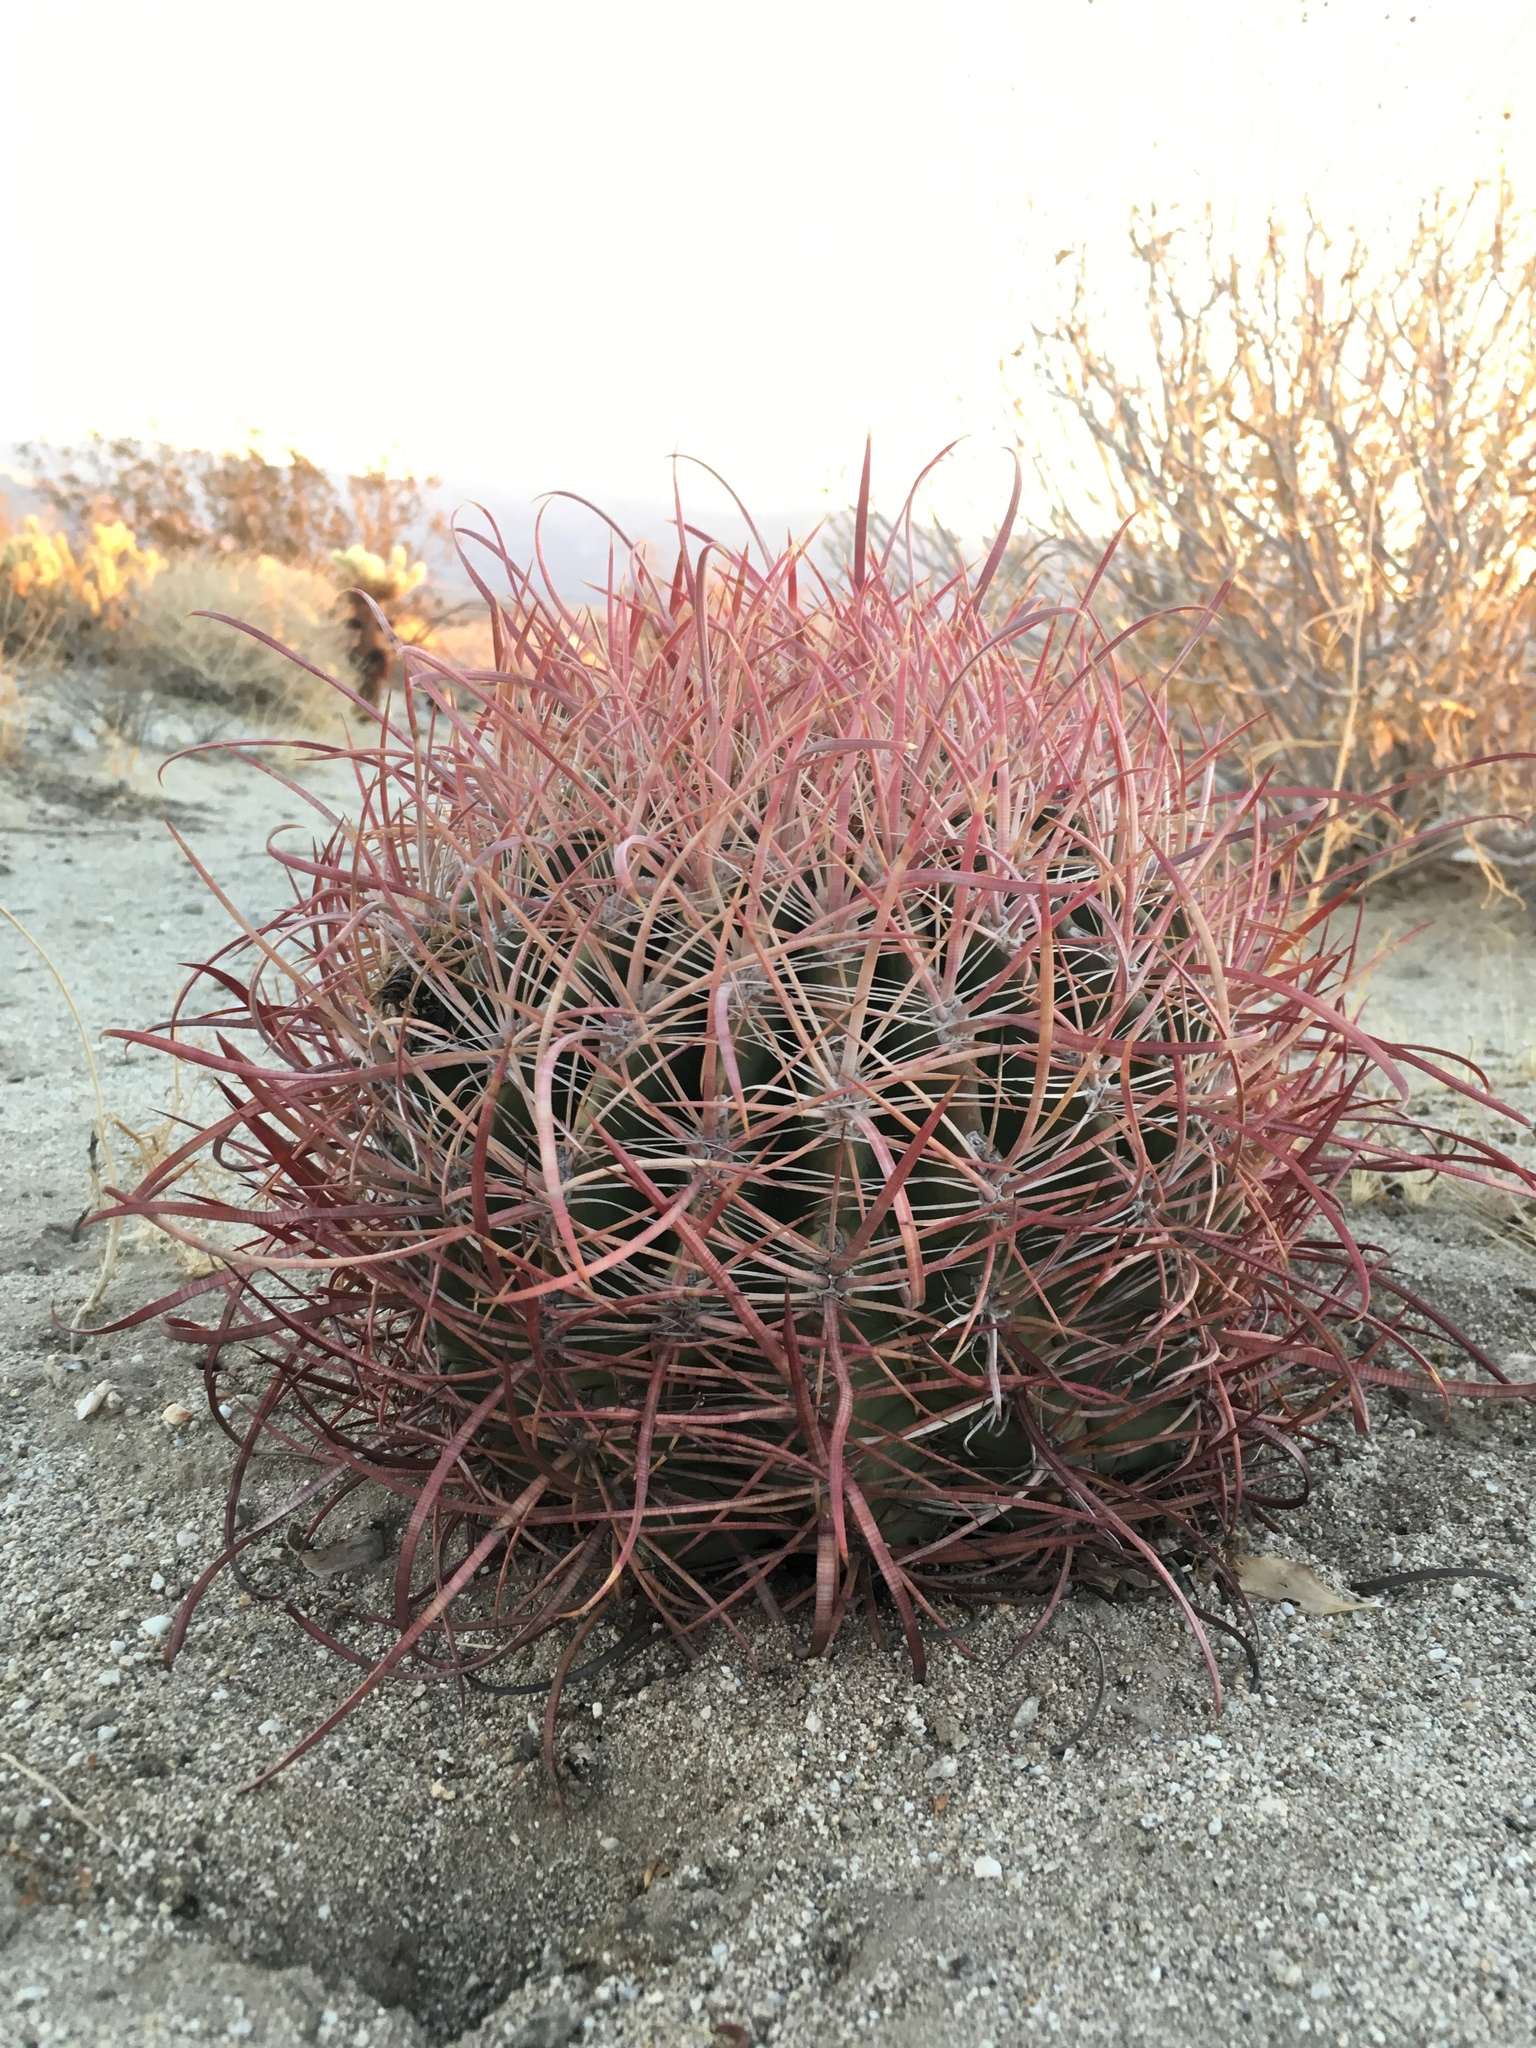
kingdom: Plantae
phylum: Tracheophyta
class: Magnoliopsida
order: Caryophyllales
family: Cactaceae
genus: Ferocactus
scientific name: Ferocactus cylindraceus
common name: California barrel cactus
